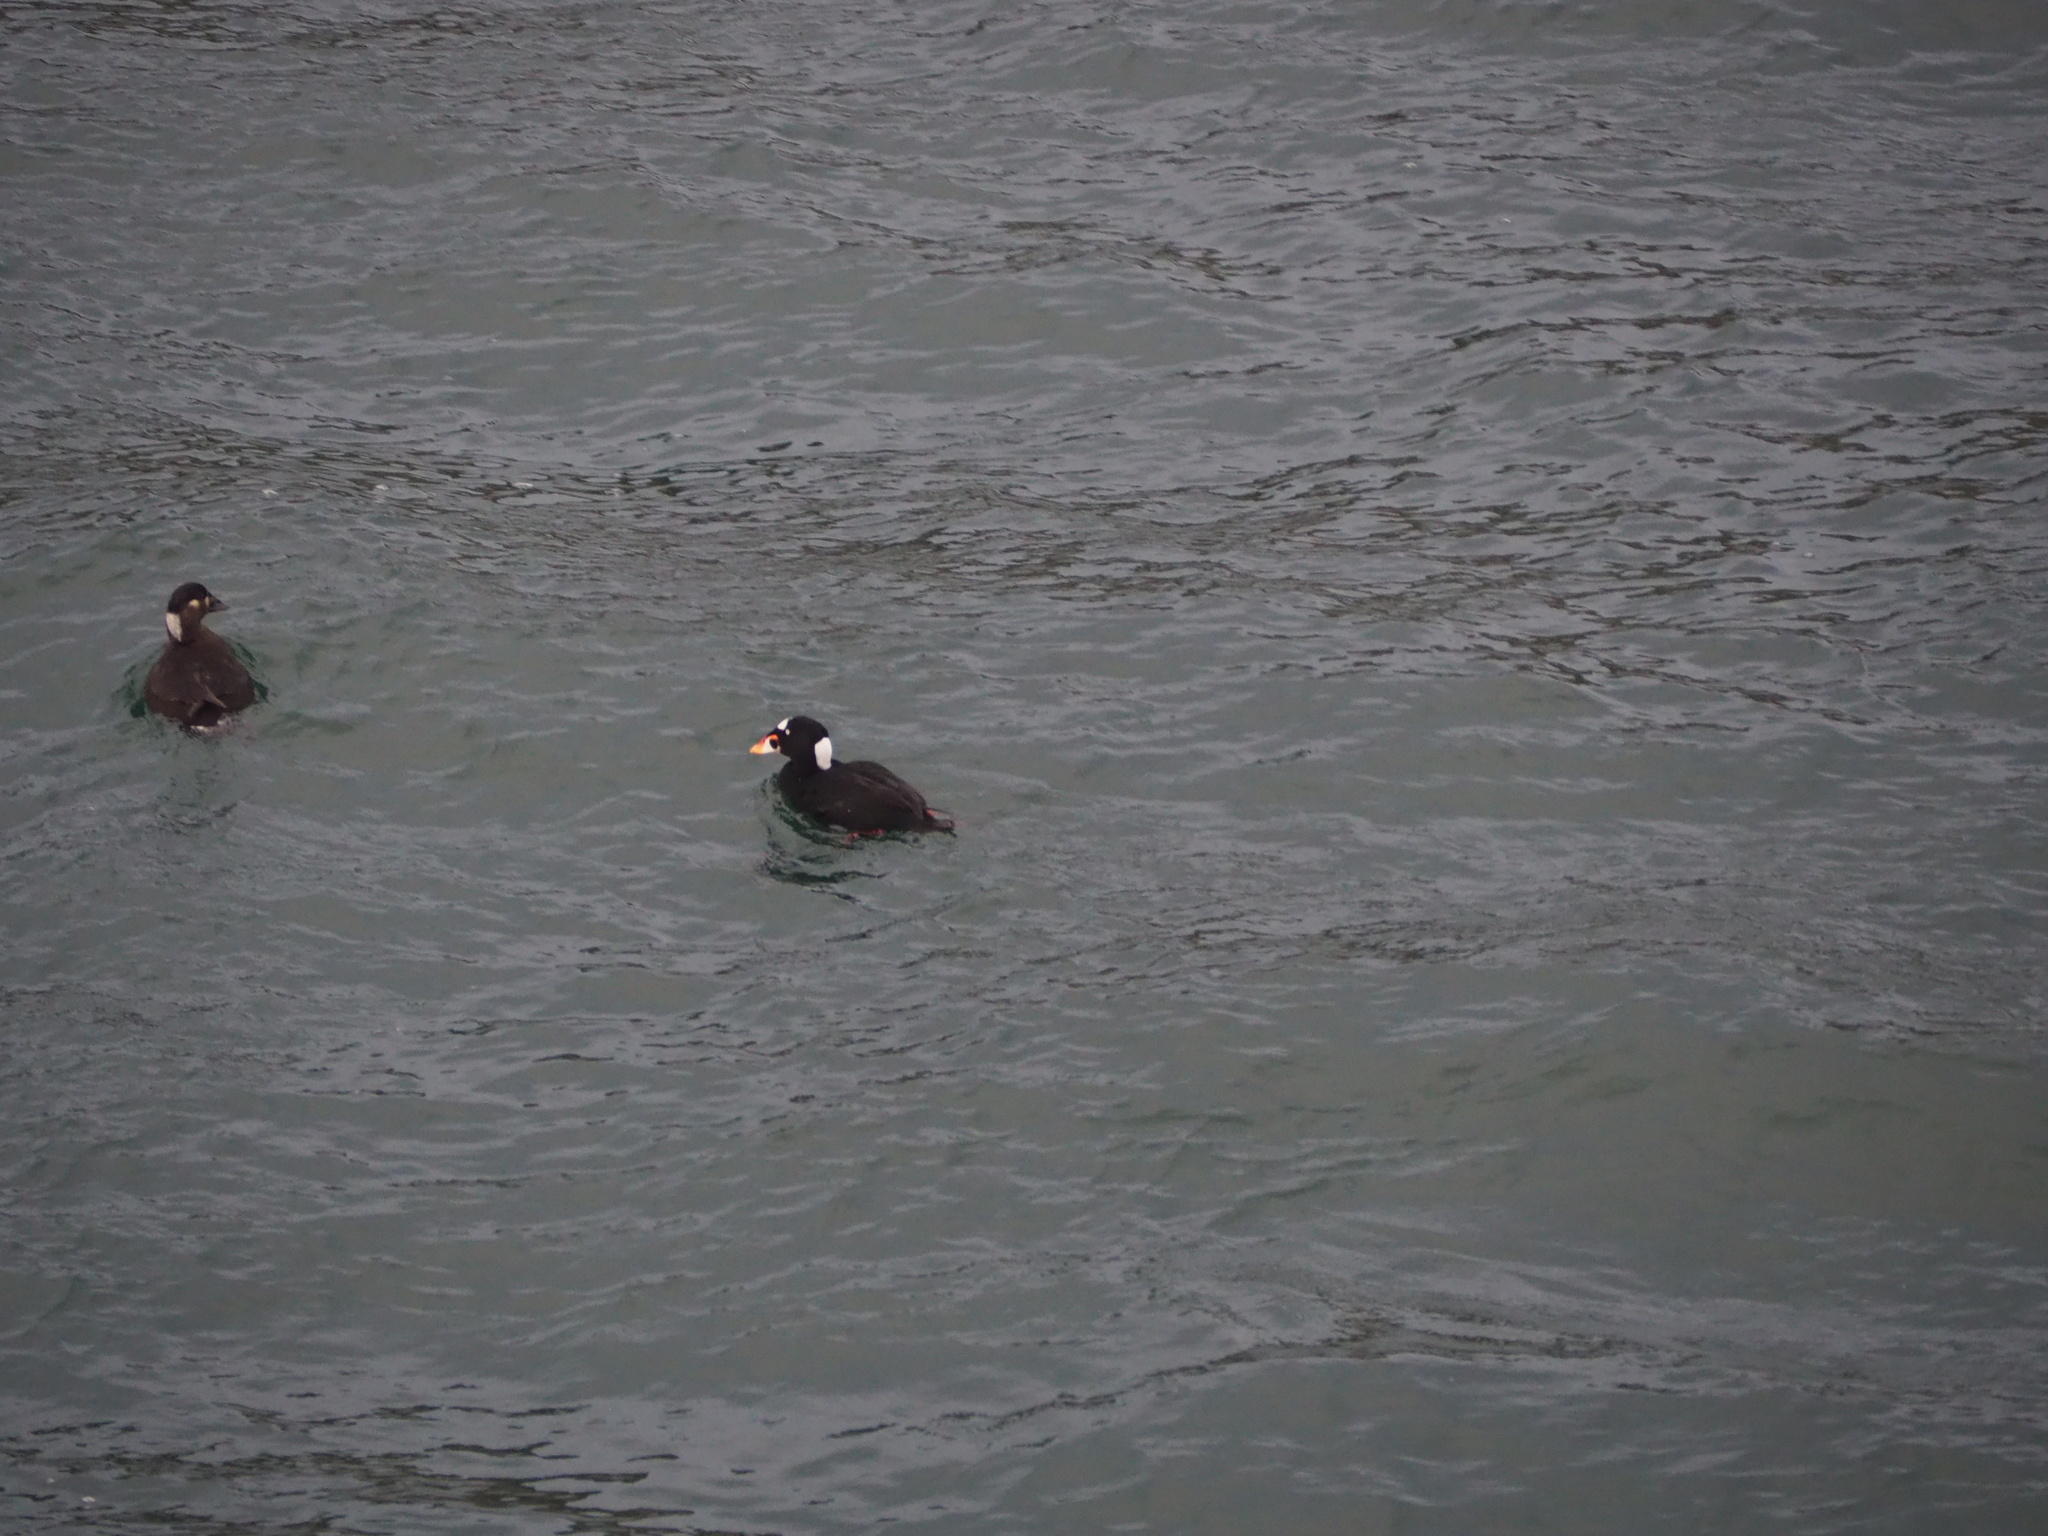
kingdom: Animalia
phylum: Chordata
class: Aves
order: Anseriformes
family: Anatidae
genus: Melanitta
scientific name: Melanitta perspicillata
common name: Surf scoter
